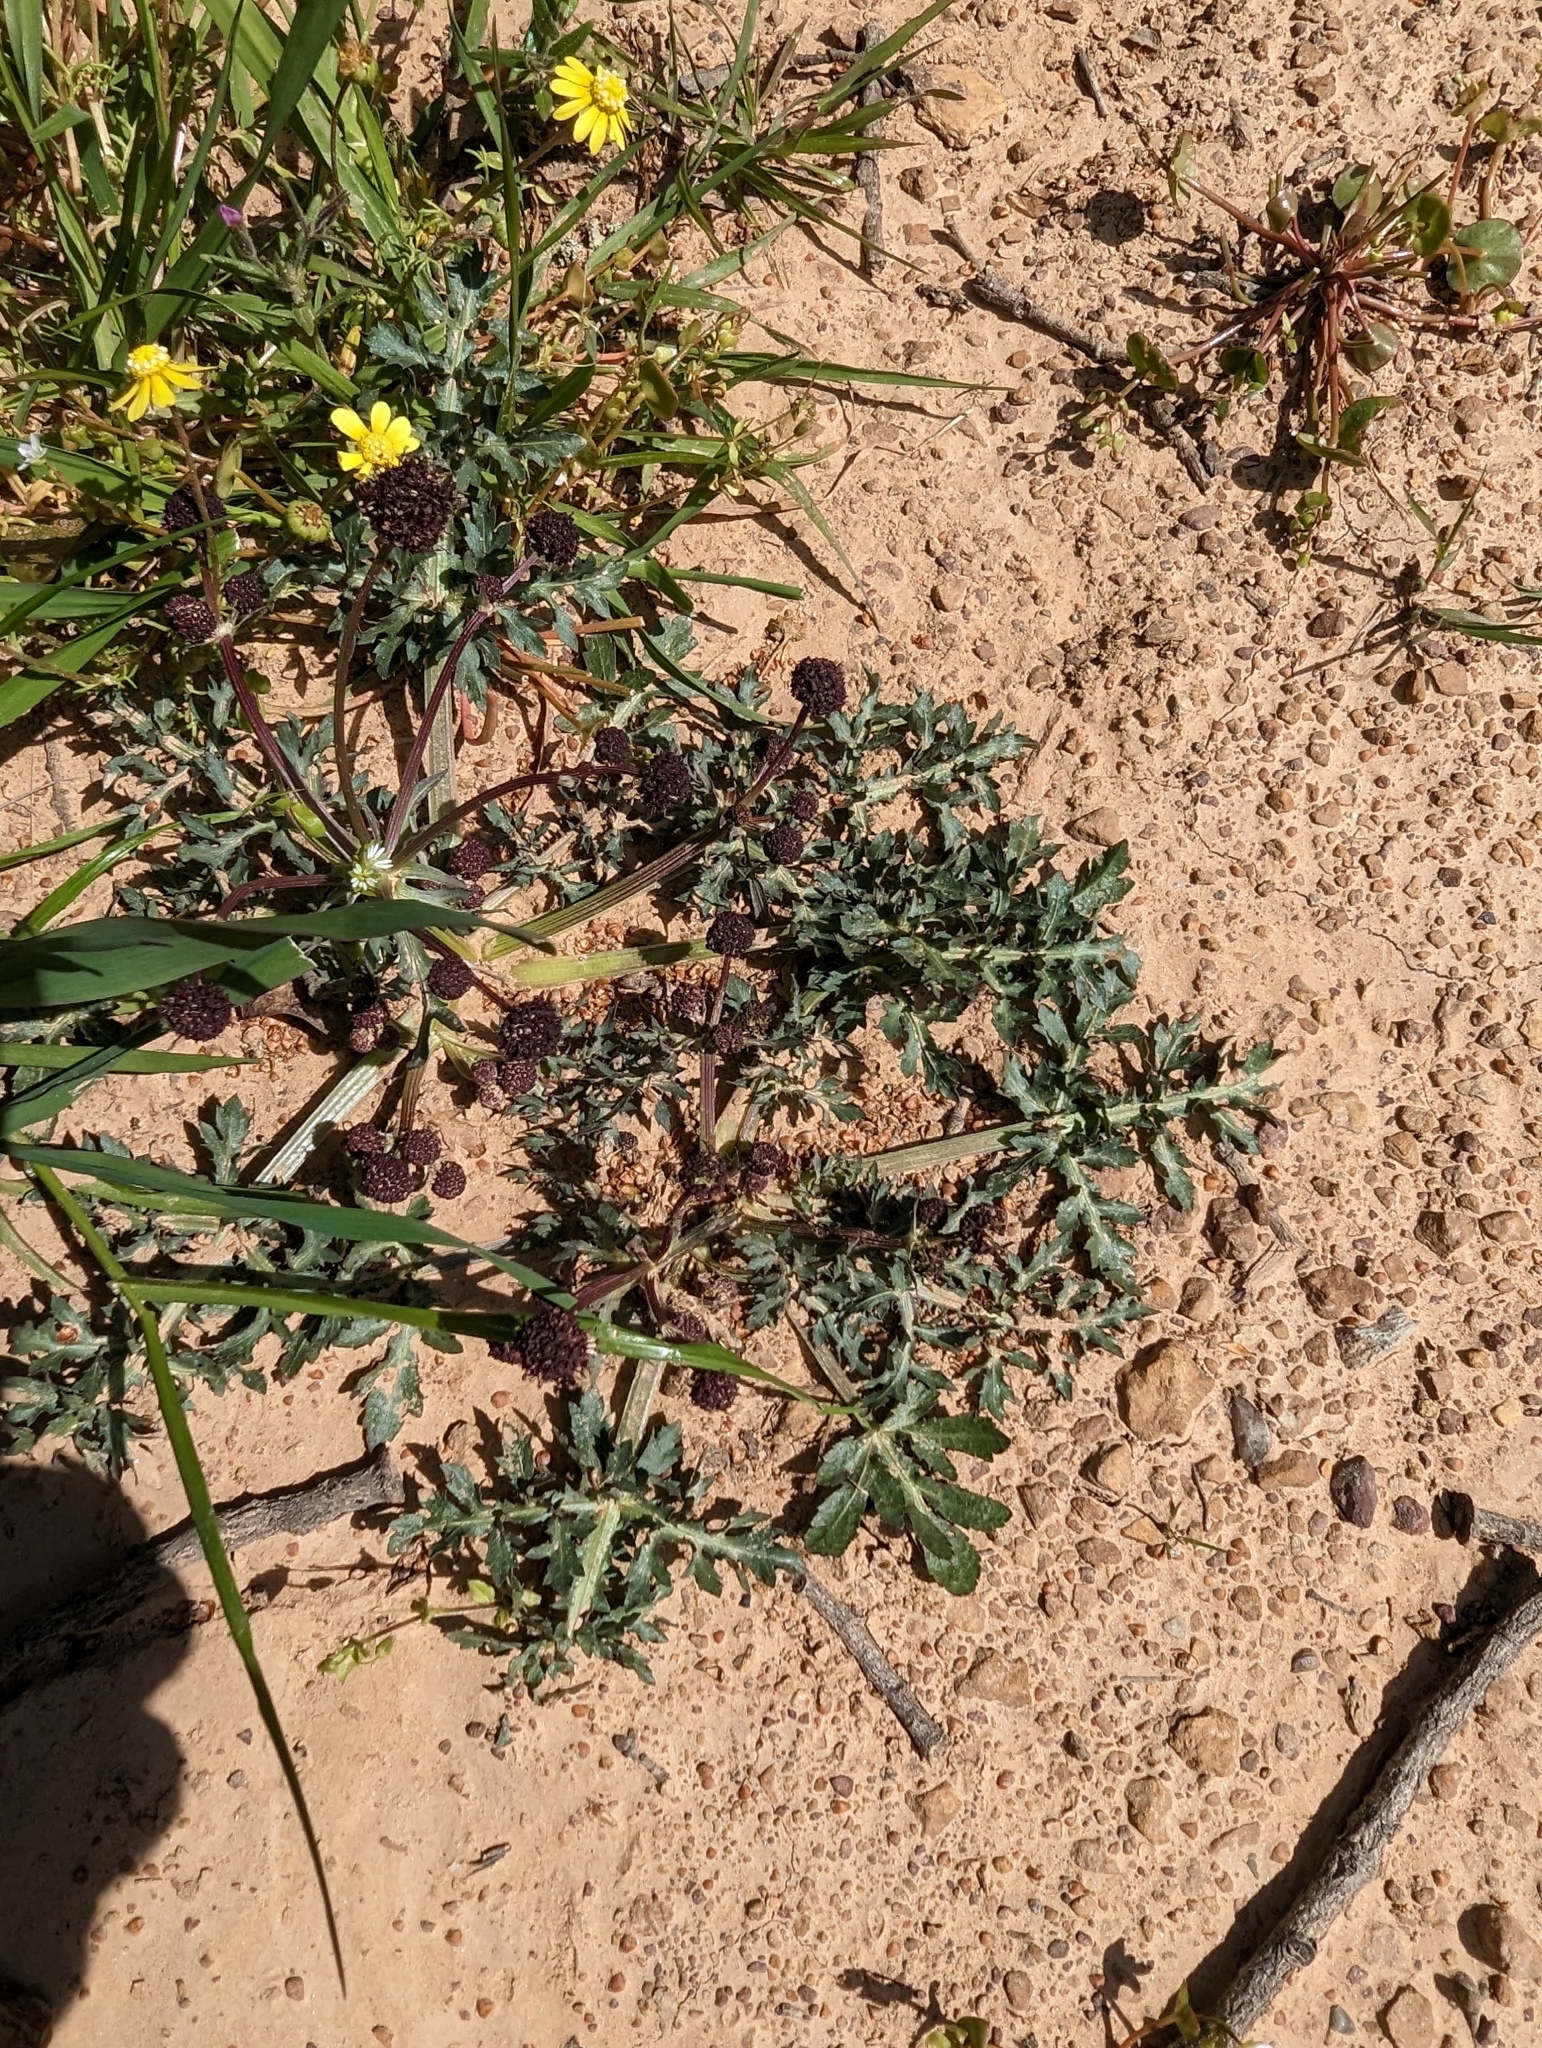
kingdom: Plantae
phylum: Tracheophyta
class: Magnoliopsida
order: Apiales
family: Apiaceae
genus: Sanicula
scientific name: Sanicula bipinnatifida
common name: Shoe-buttons
